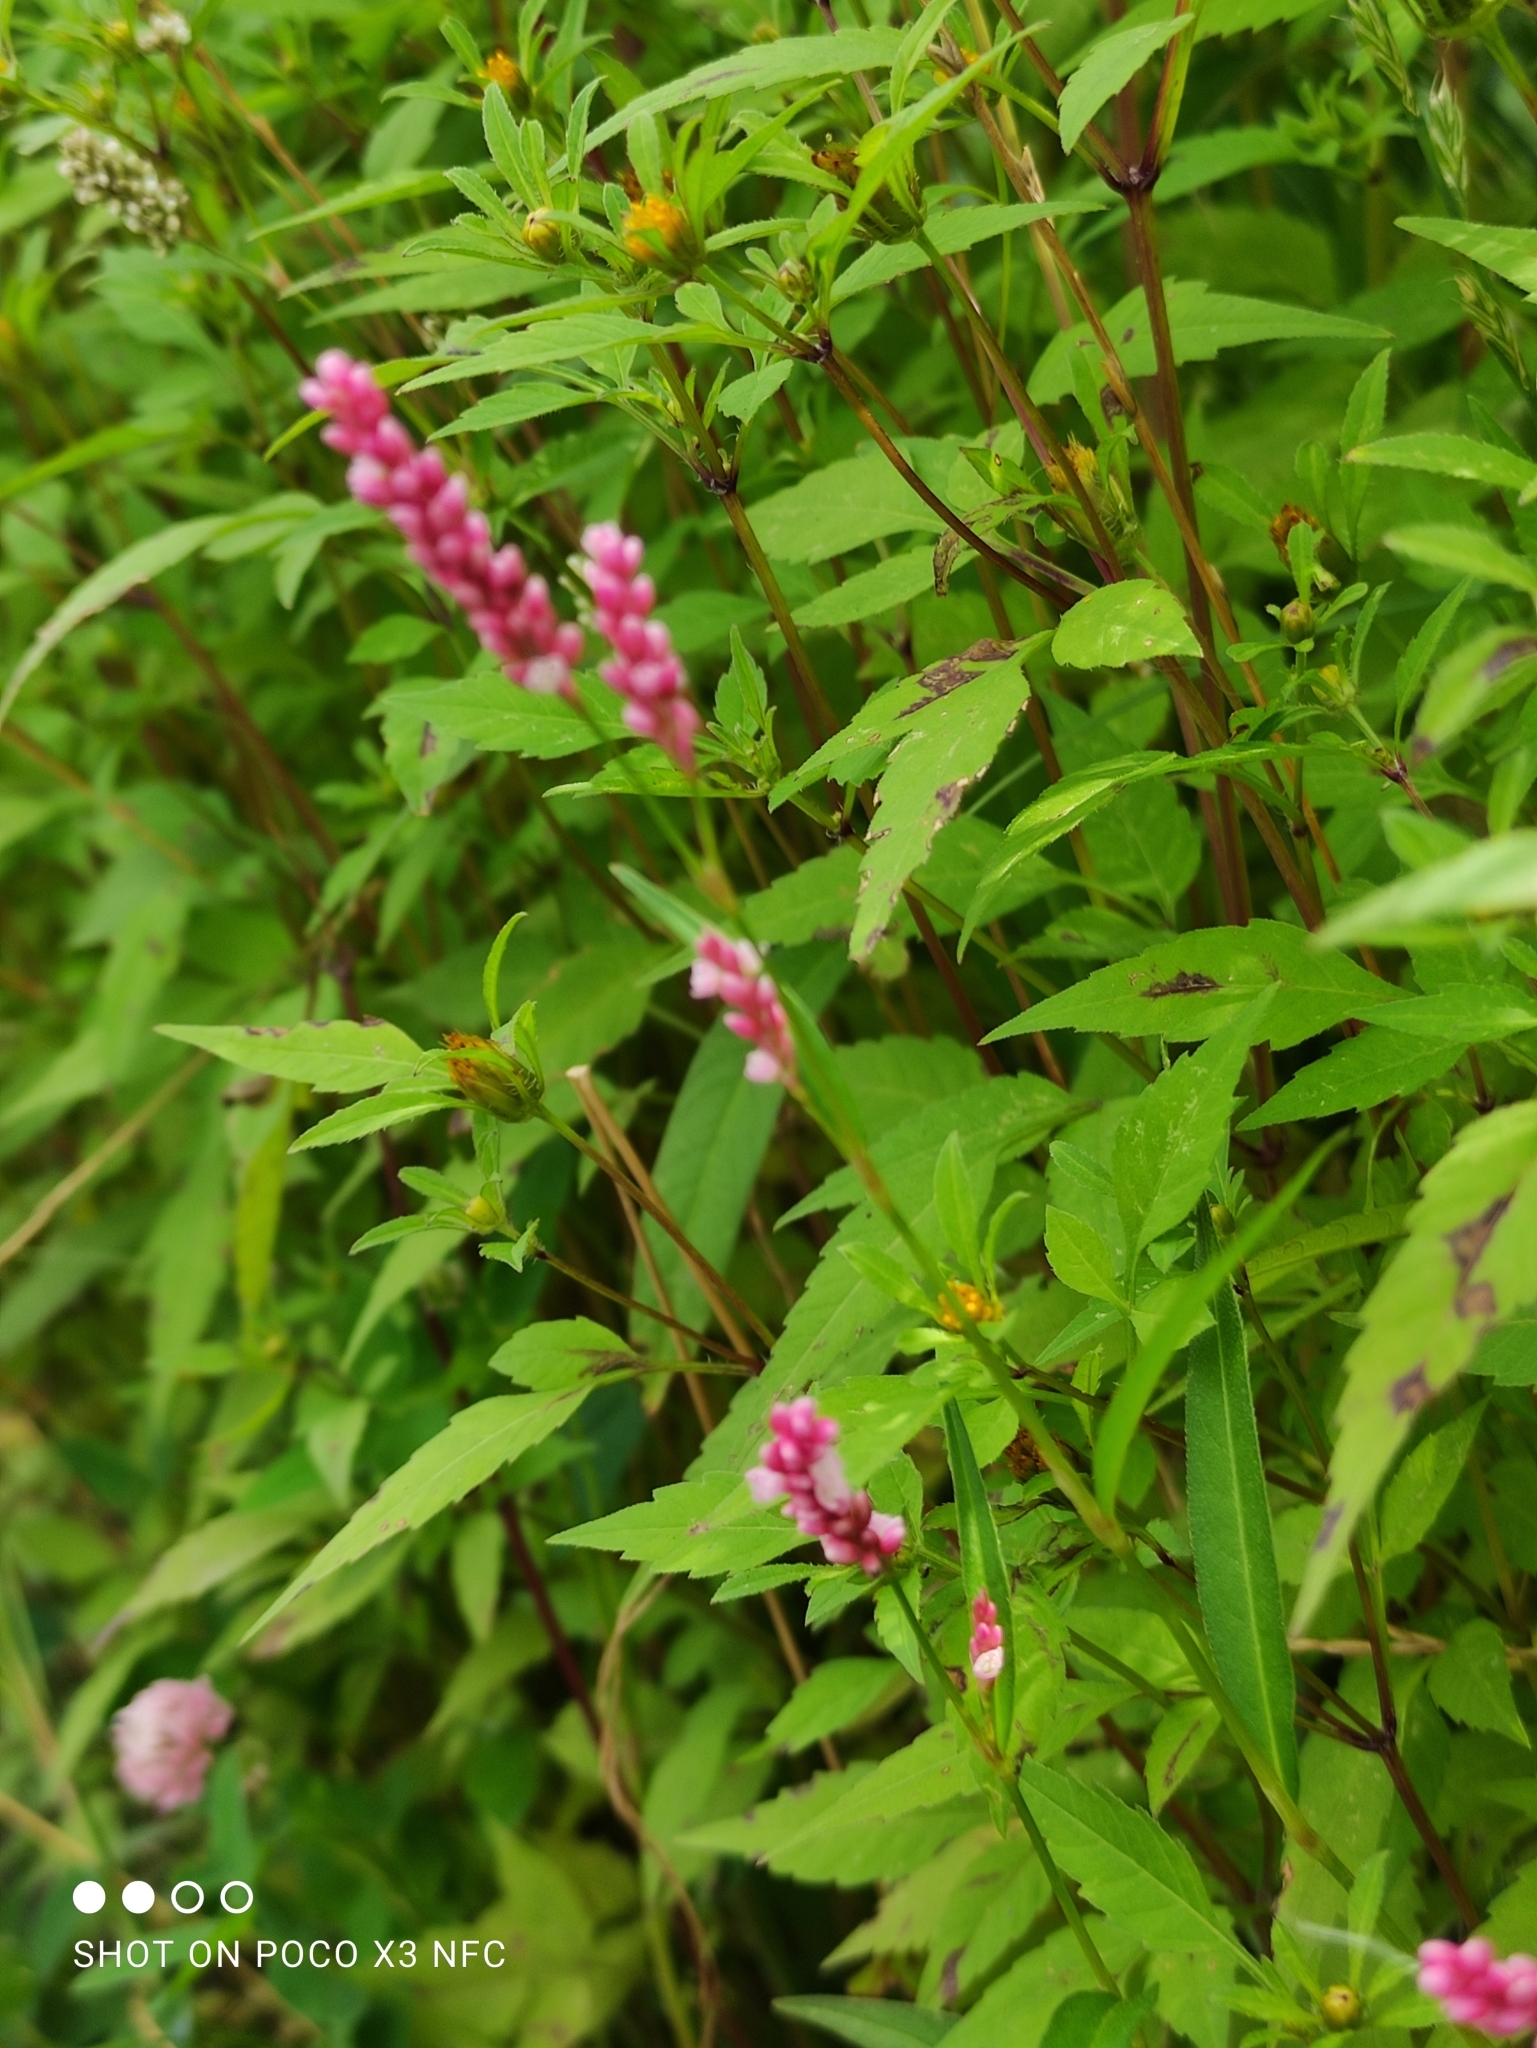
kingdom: Plantae
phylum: Tracheophyta
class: Magnoliopsida
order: Caryophyllales
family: Polygonaceae
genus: Persicaria
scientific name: Persicaria maculosa
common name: Redshank
